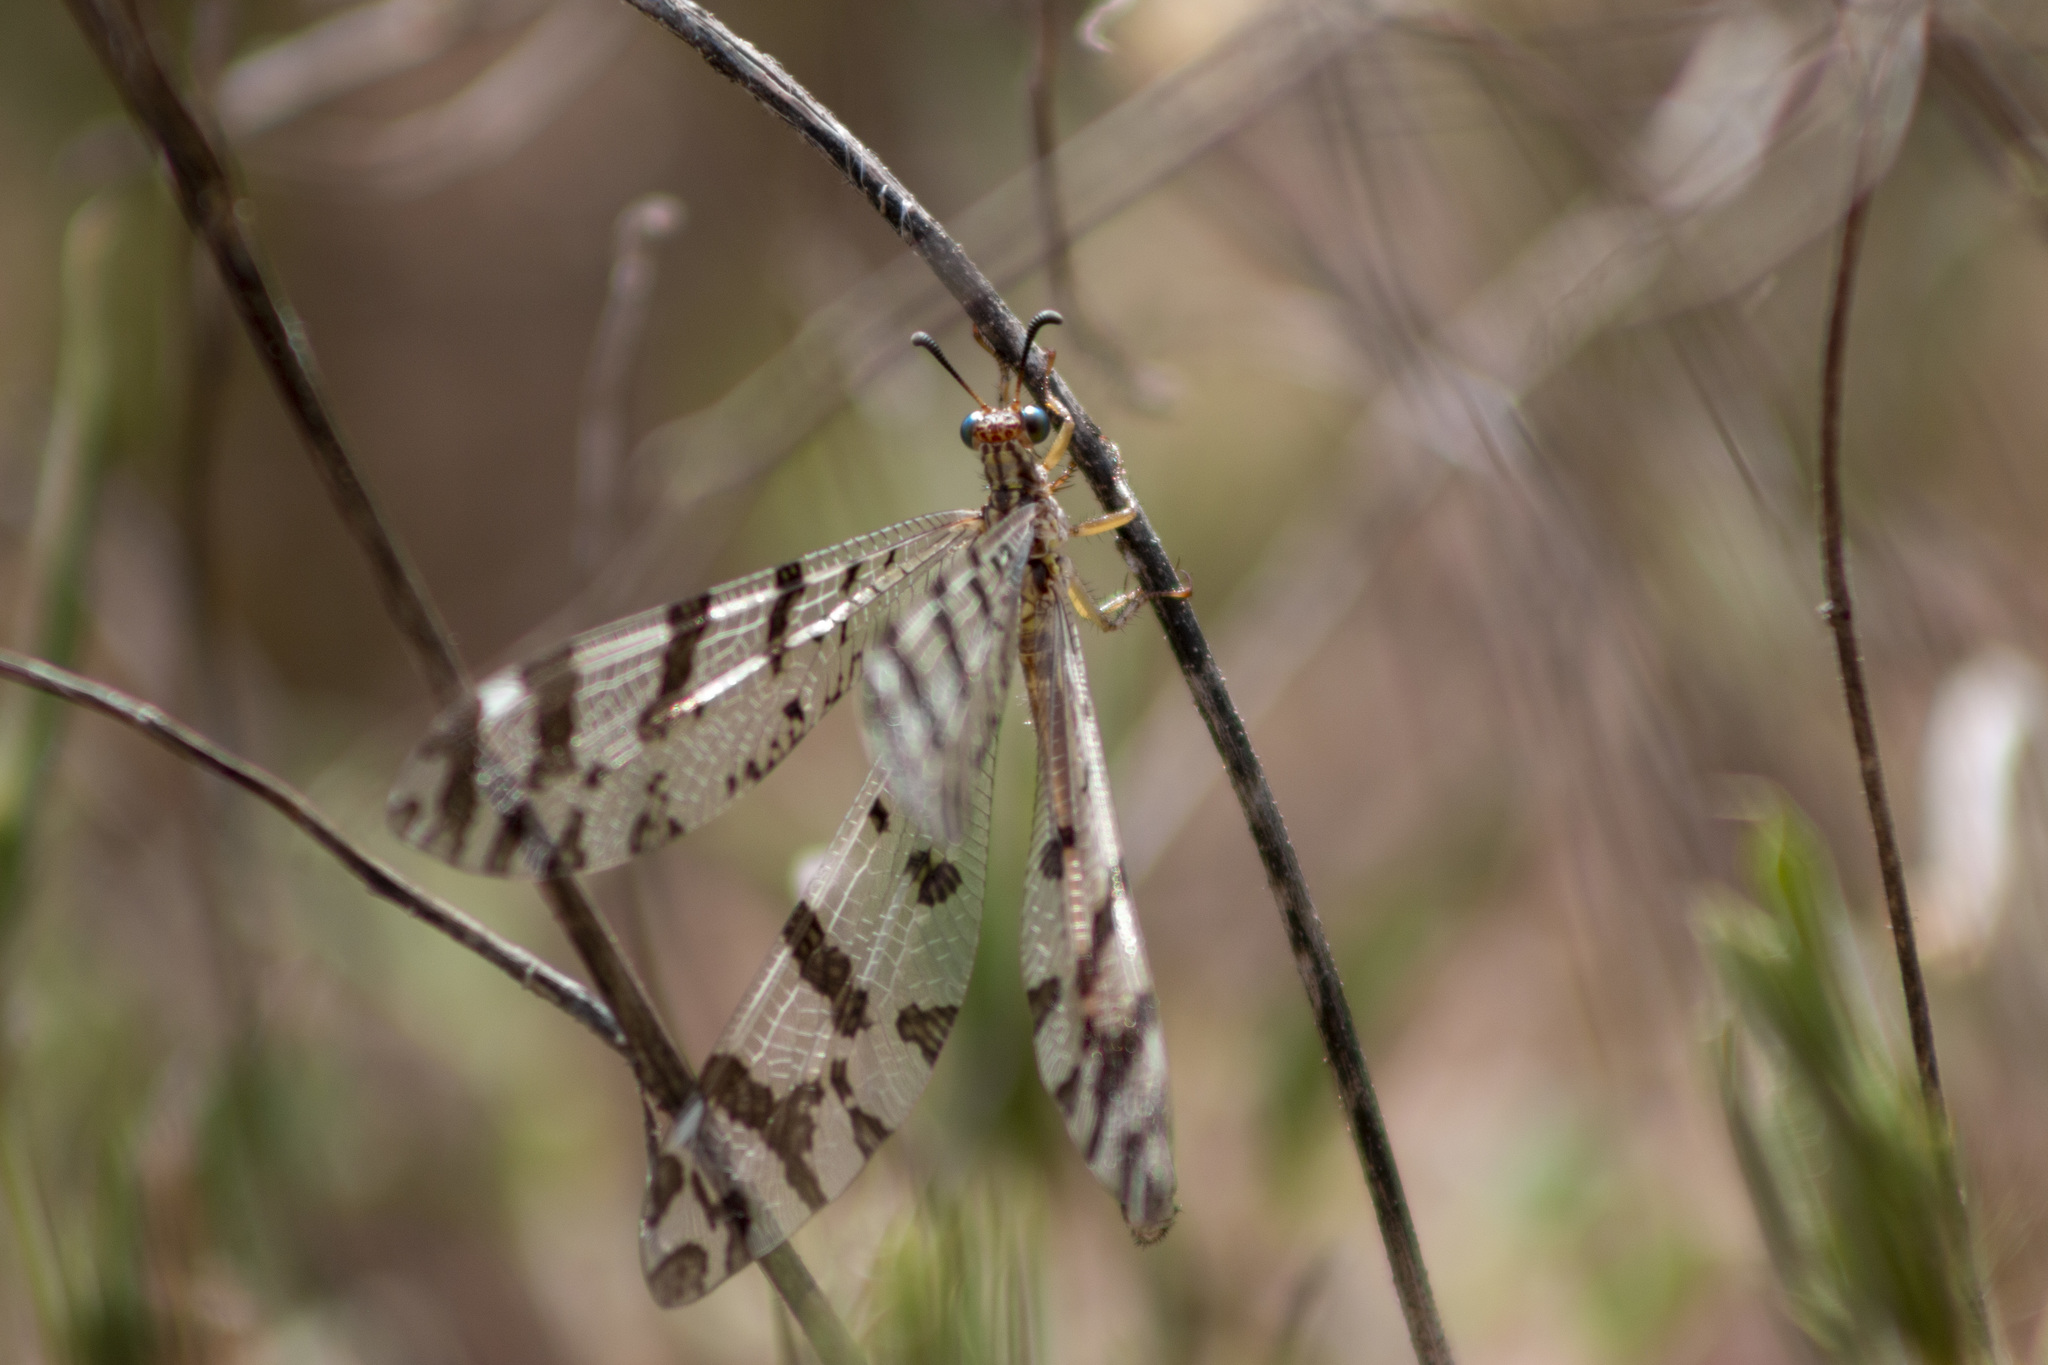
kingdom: Animalia
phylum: Arthropoda
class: Insecta
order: Neuroptera
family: Myrmeleontidae
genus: Dimares
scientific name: Dimares elegans
